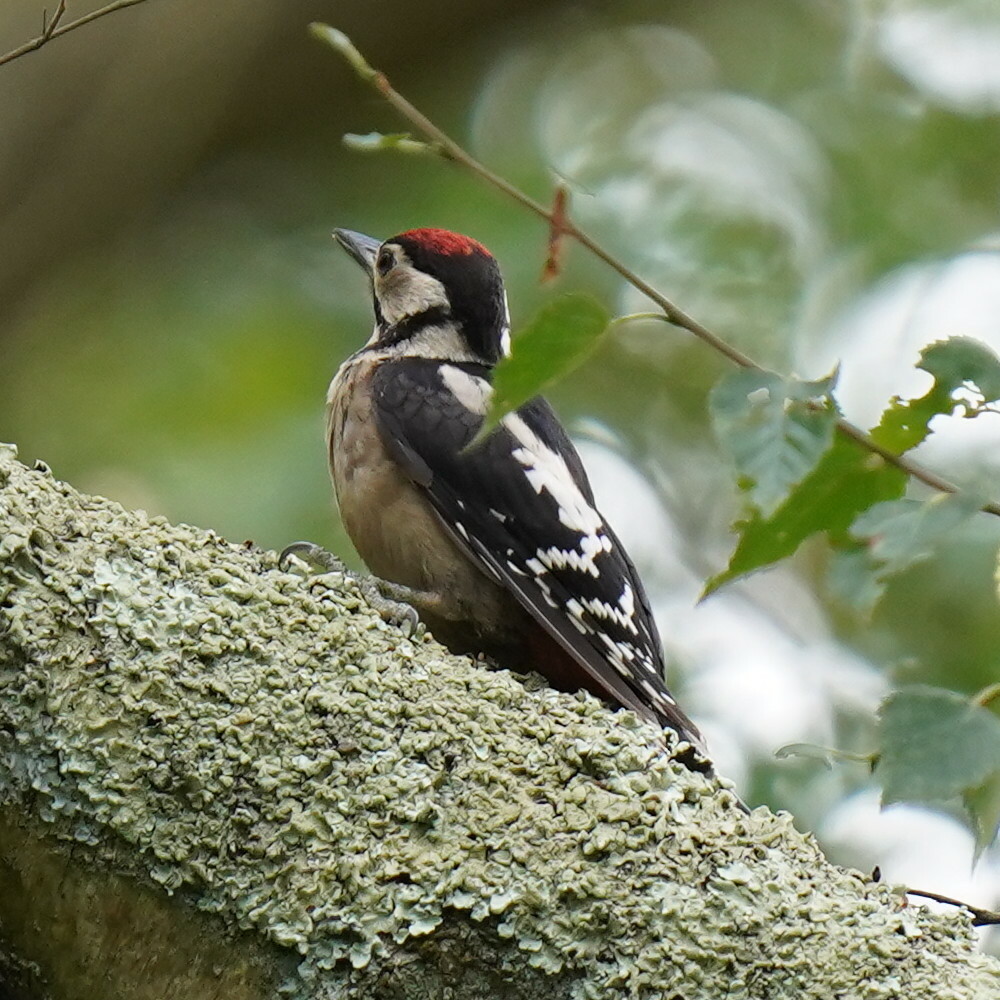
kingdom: Animalia
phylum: Chordata
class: Aves
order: Piciformes
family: Picidae
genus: Dendrocopos
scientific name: Dendrocopos major
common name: Great spotted woodpecker
